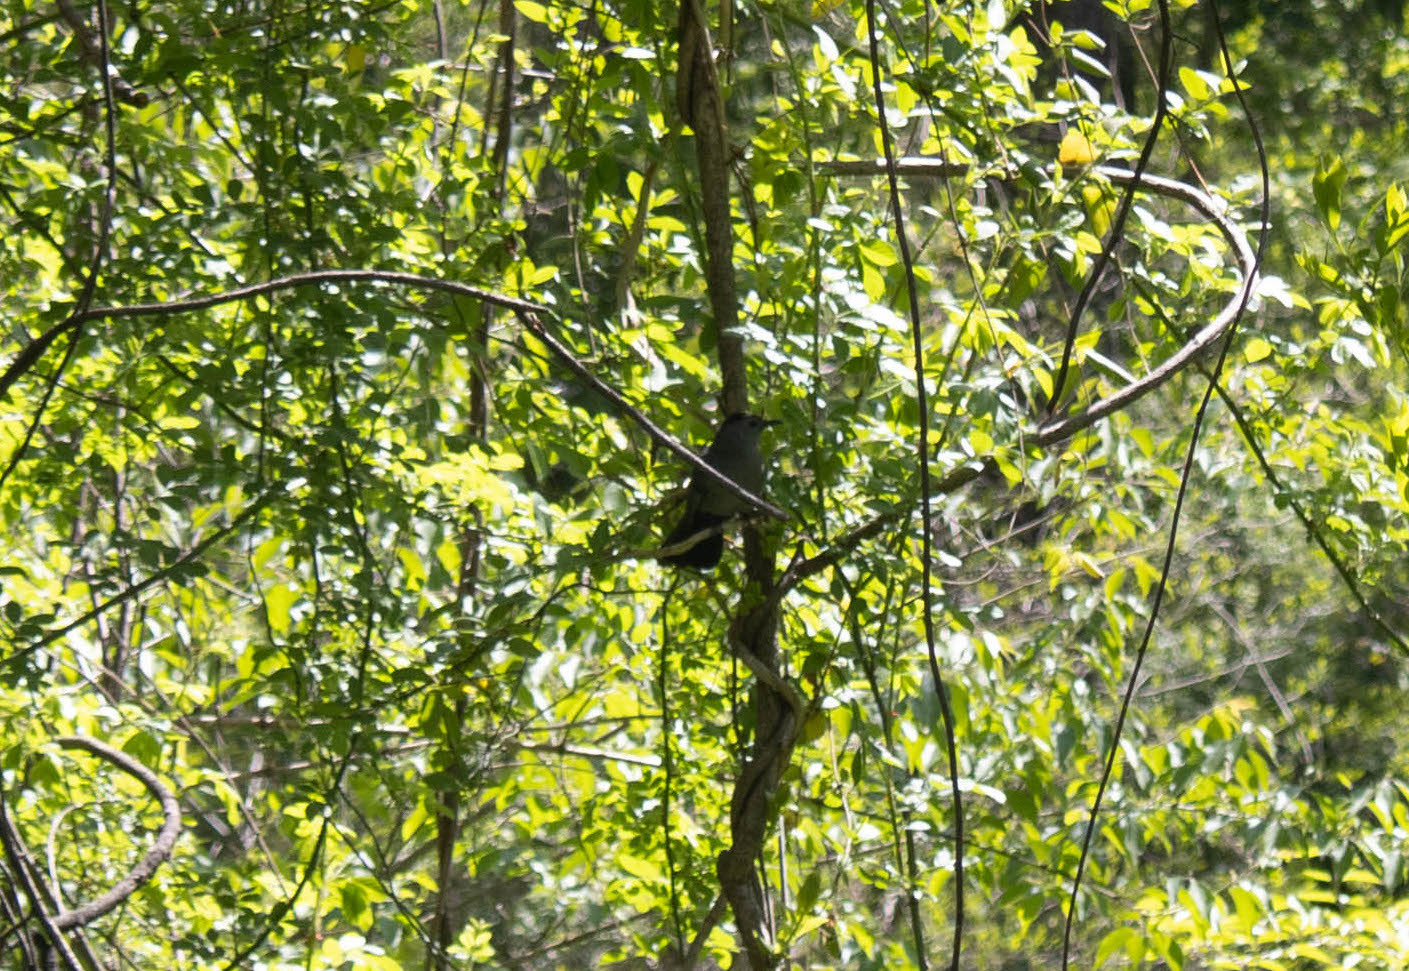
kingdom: Animalia
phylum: Chordata
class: Aves
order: Passeriformes
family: Mimidae
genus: Dumetella
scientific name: Dumetella carolinensis
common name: Gray catbird
